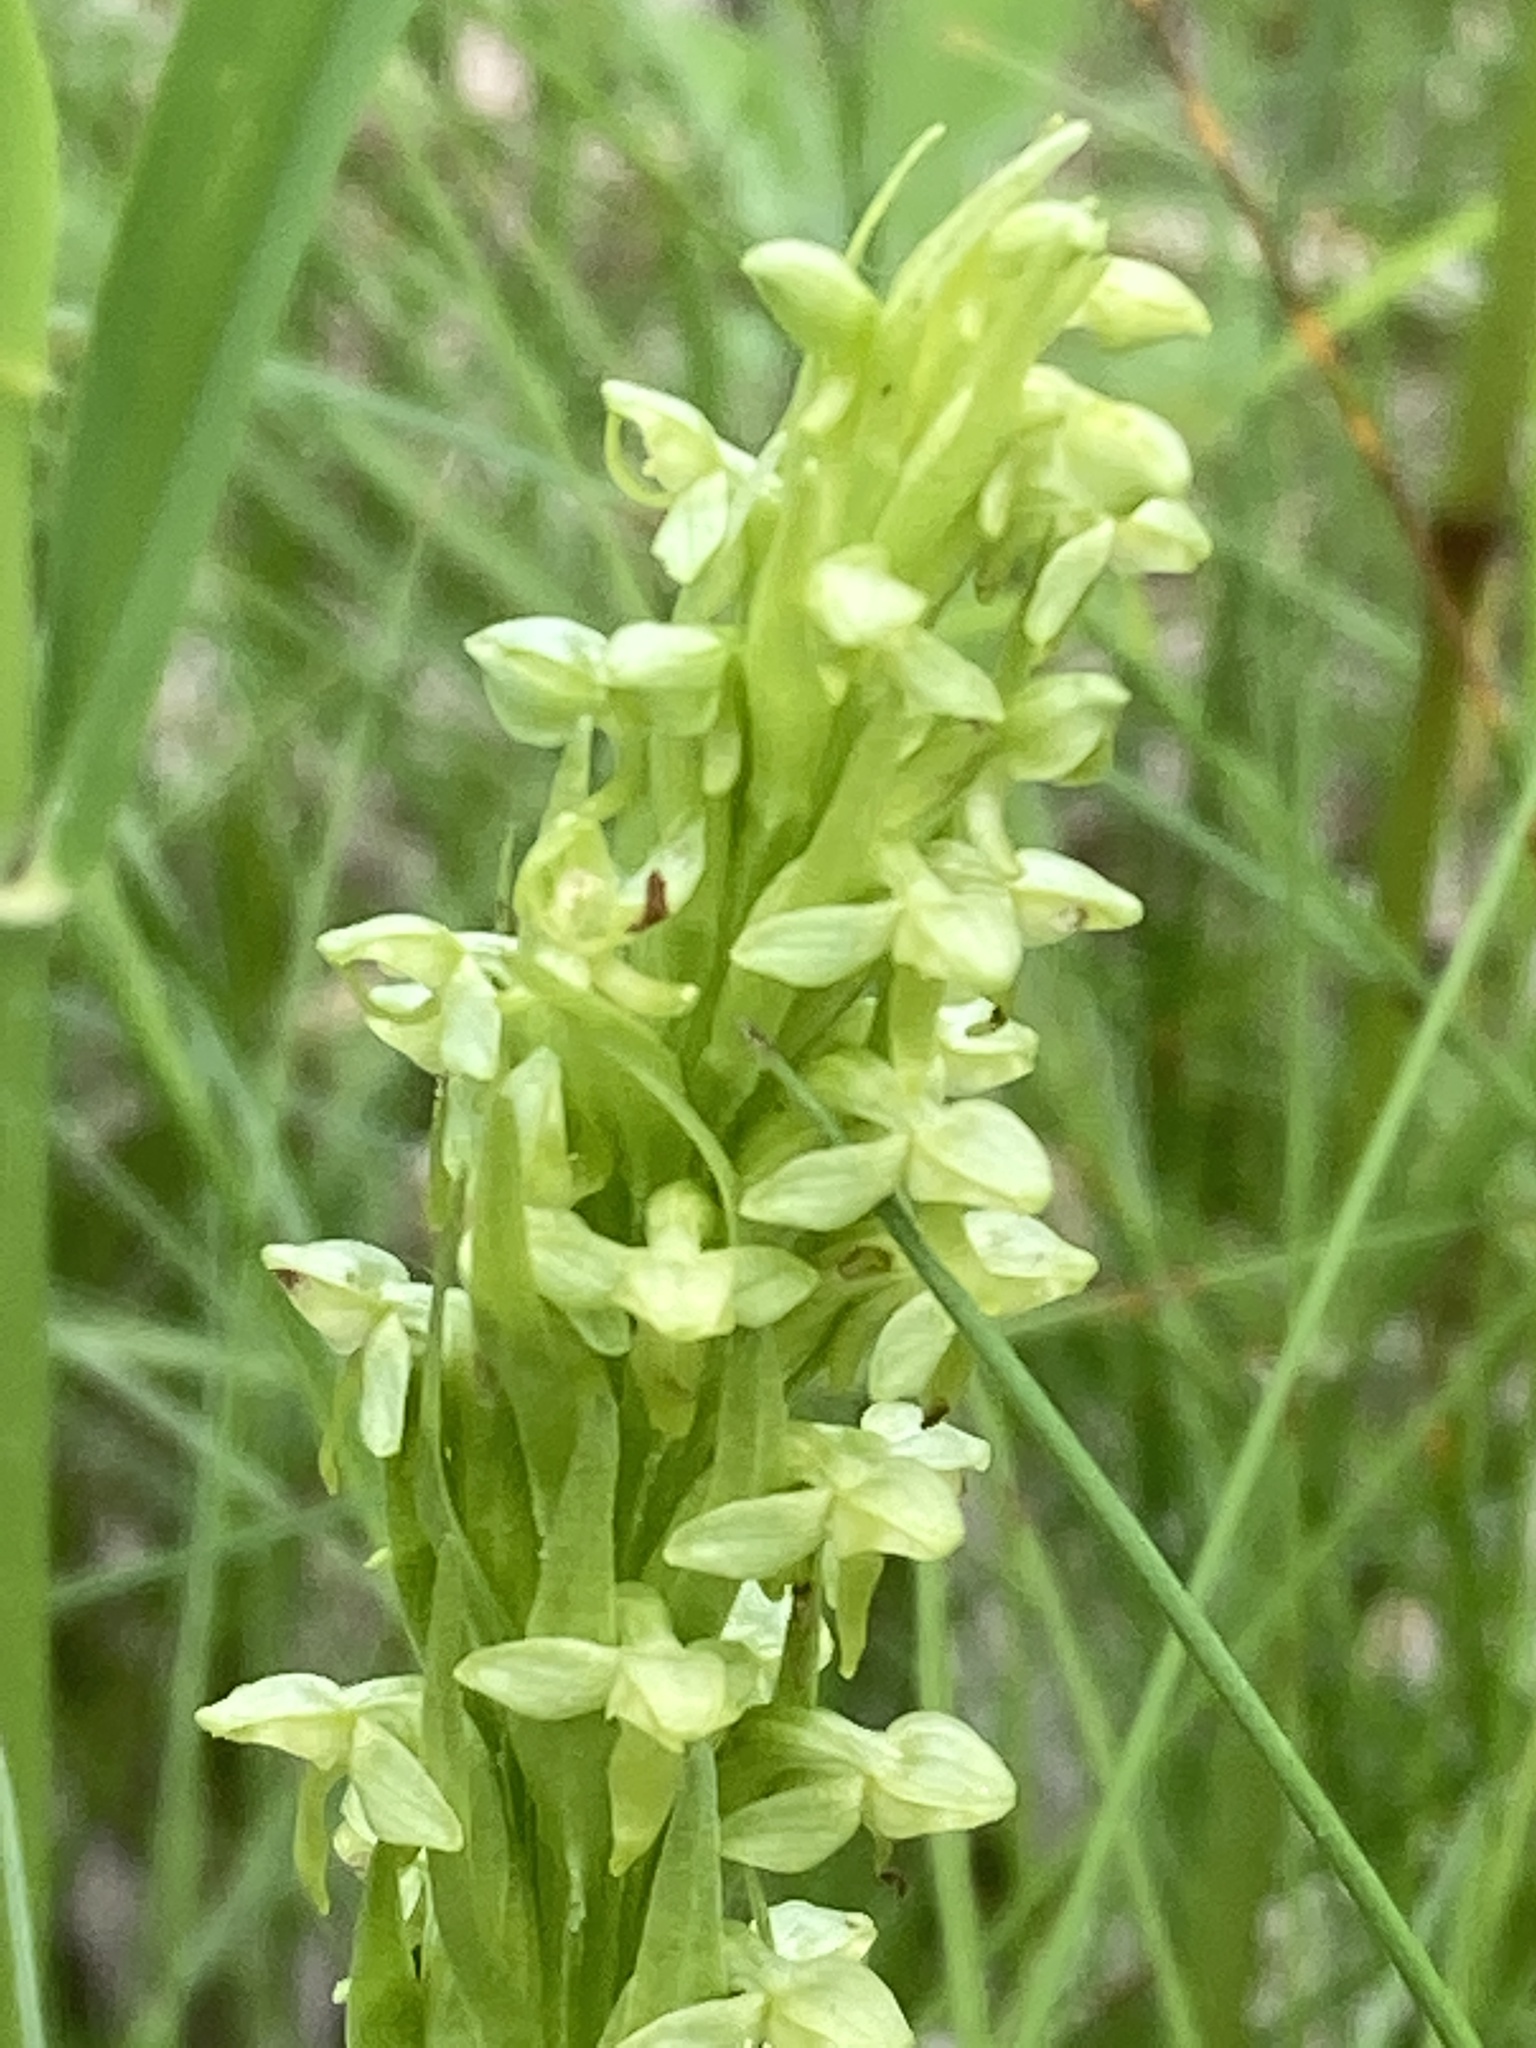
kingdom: Plantae
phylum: Tracheophyta
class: Liliopsida
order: Asparagales
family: Orchidaceae
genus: Platanthera
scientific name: Platanthera aquilonis
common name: Northern green orchid
